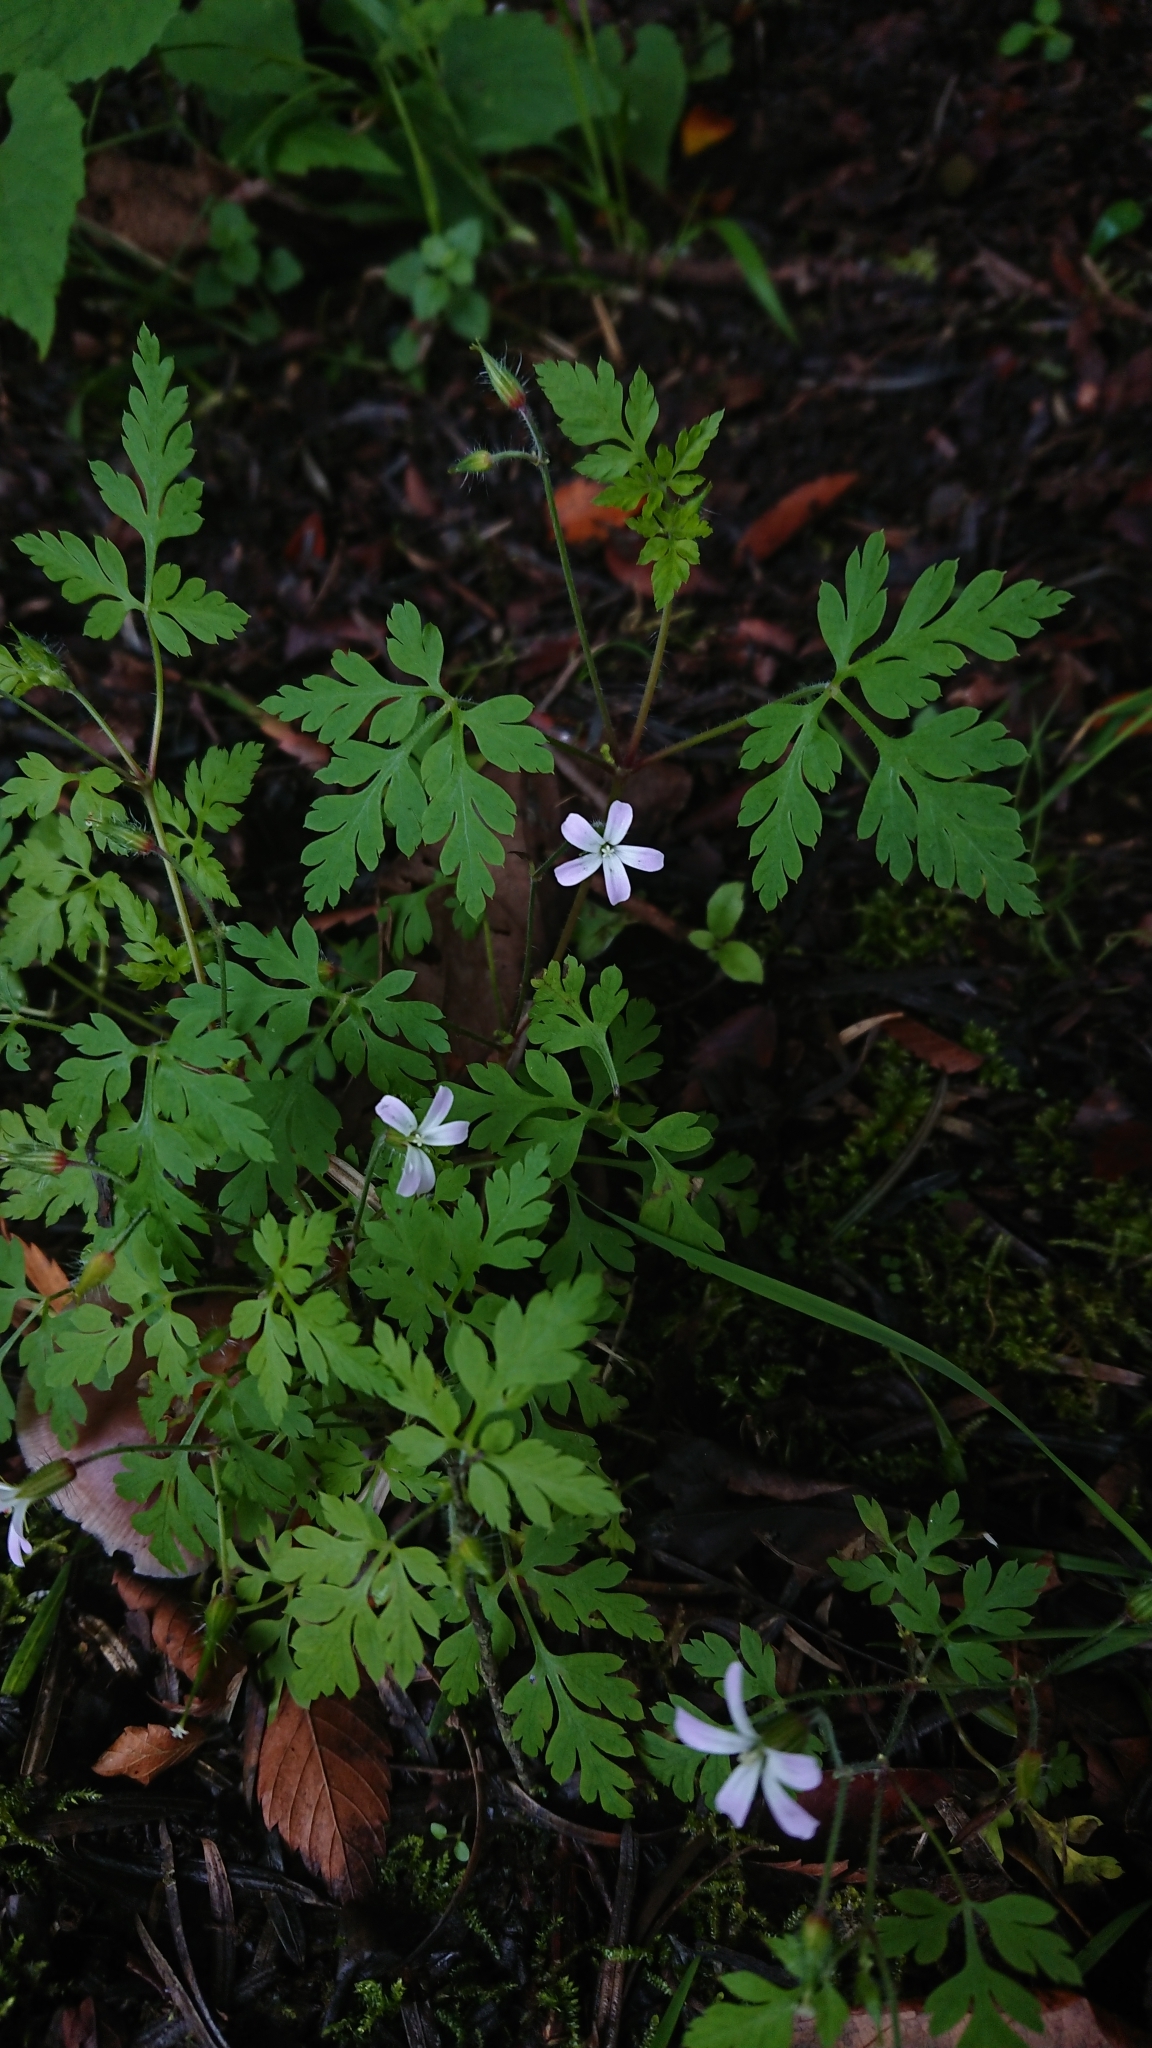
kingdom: Plantae
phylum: Tracheophyta
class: Magnoliopsida
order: Geraniales
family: Geraniaceae
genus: Geranium
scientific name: Geranium robertianum
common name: Herb-robert
